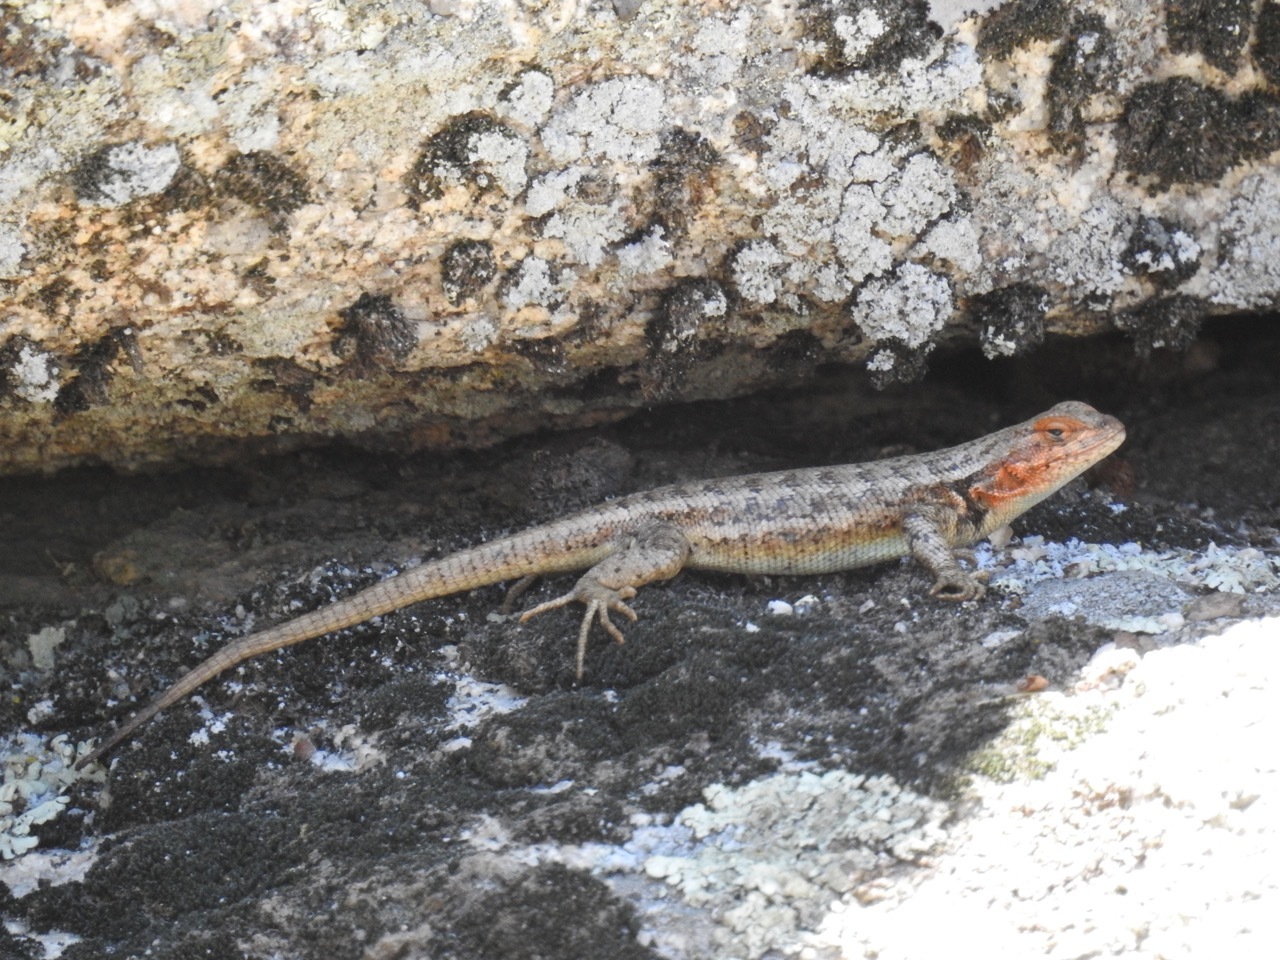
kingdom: Animalia
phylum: Chordata
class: Squamata
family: Phrynosomatidae
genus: Sceloporus
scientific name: Sceloporus graciosus
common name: Sagebrush lizard
